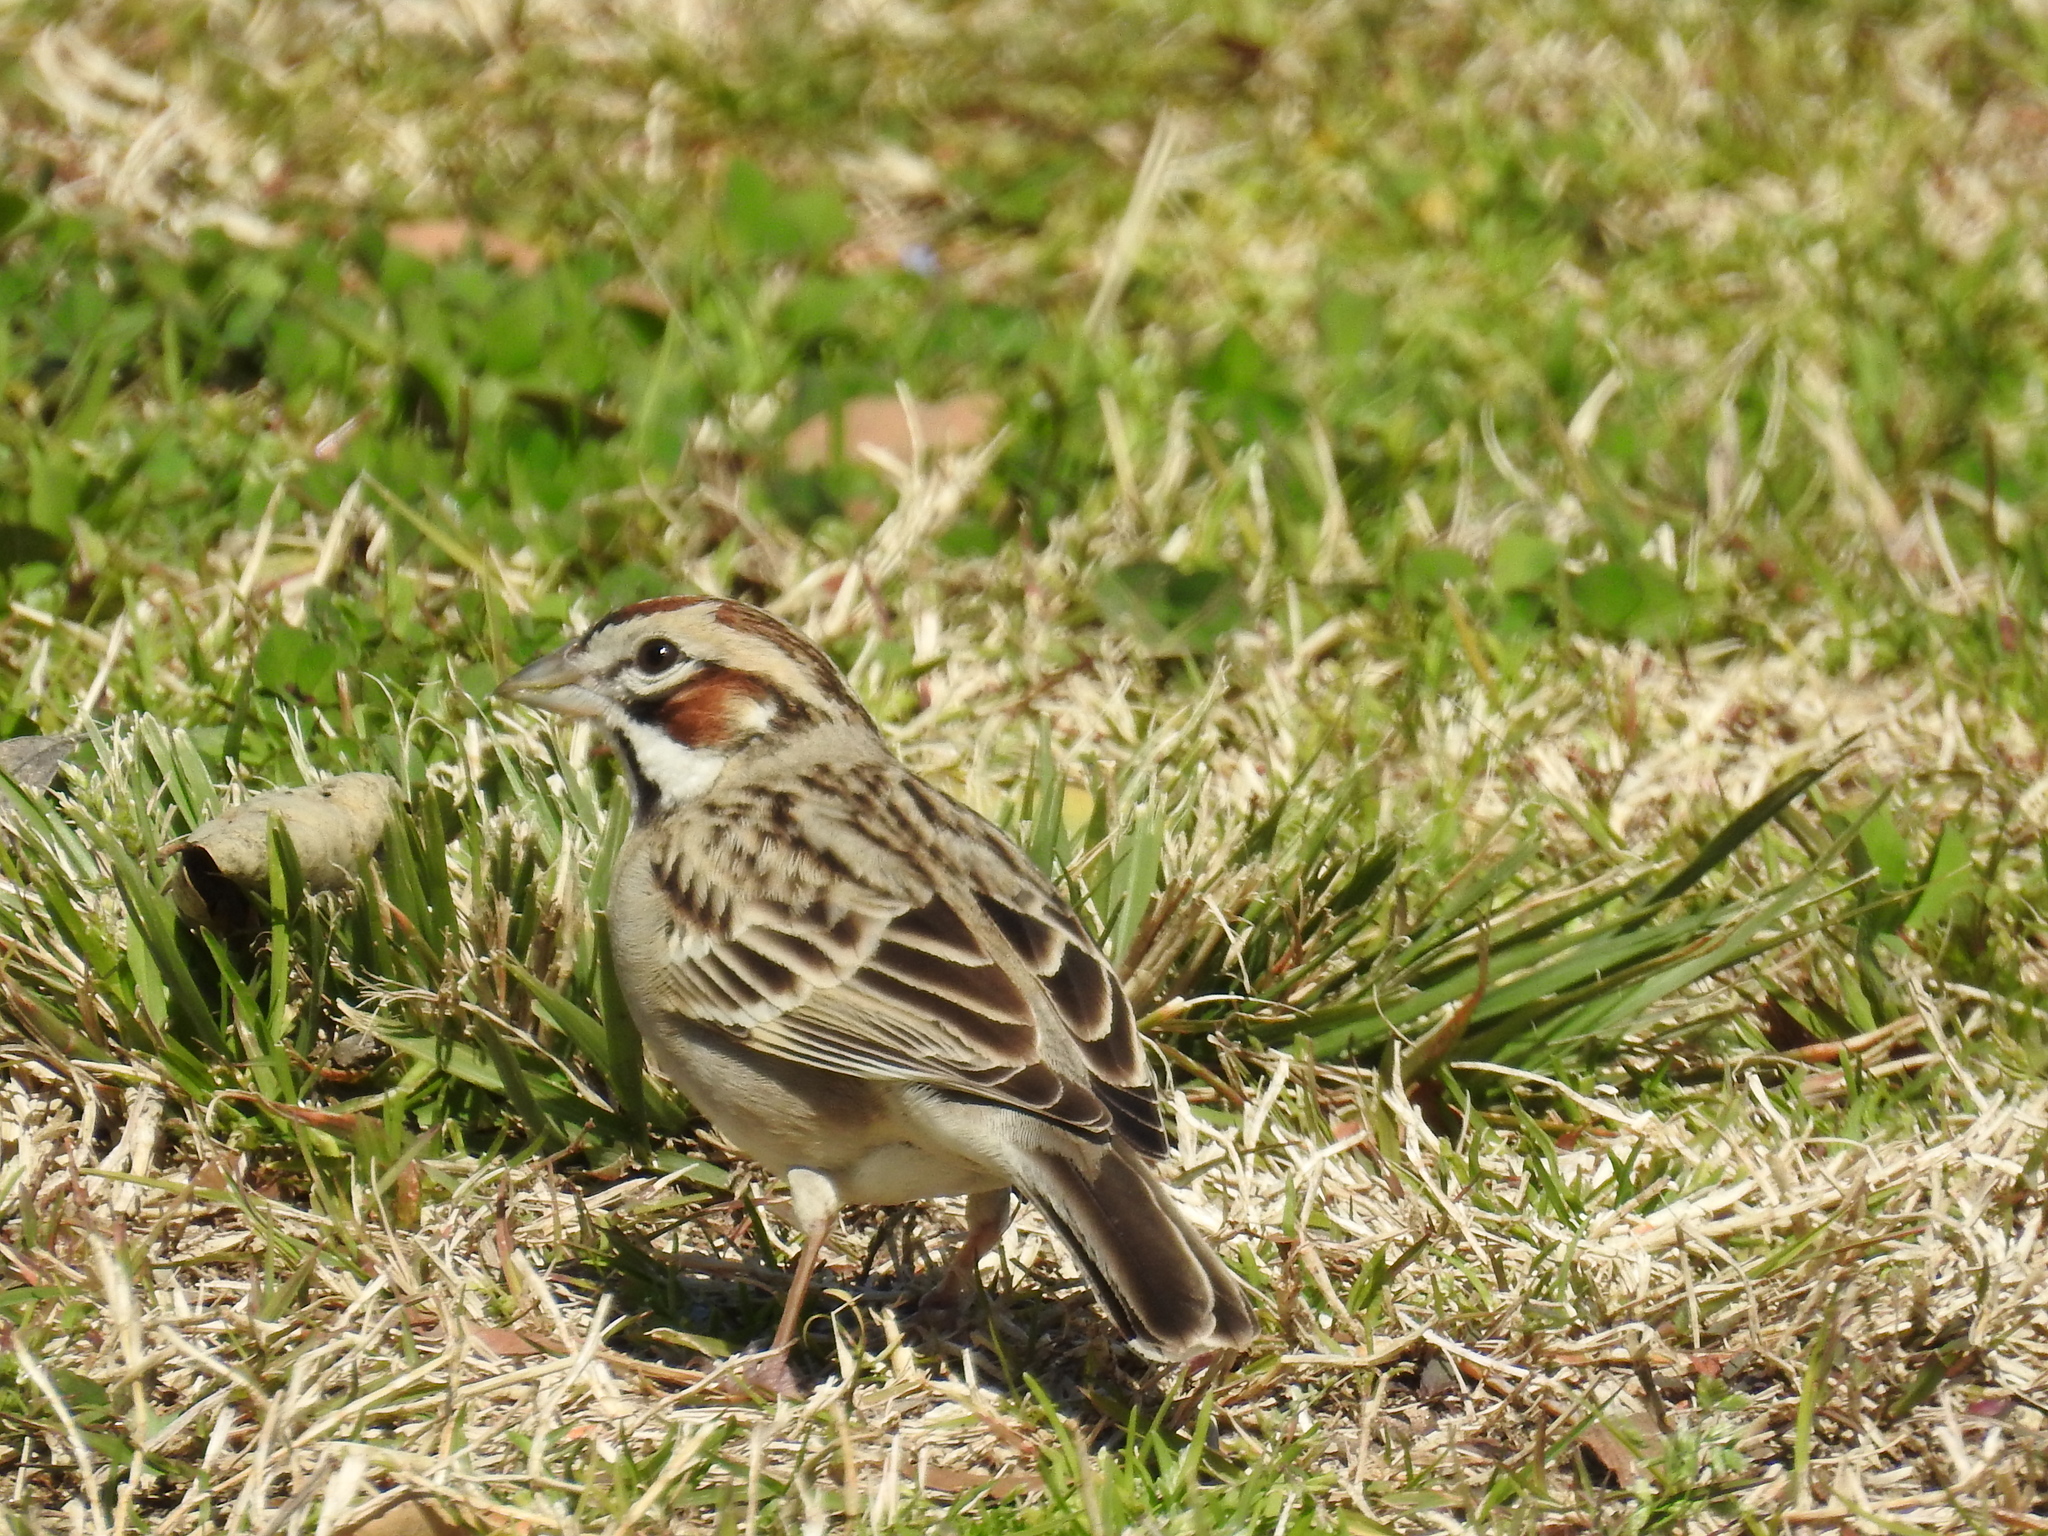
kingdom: Animalia
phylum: Chordata
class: Aves
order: Passeriformes
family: Passerellidae
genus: Chondestes
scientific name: Chondestes grammacus
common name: Lark sparrow
